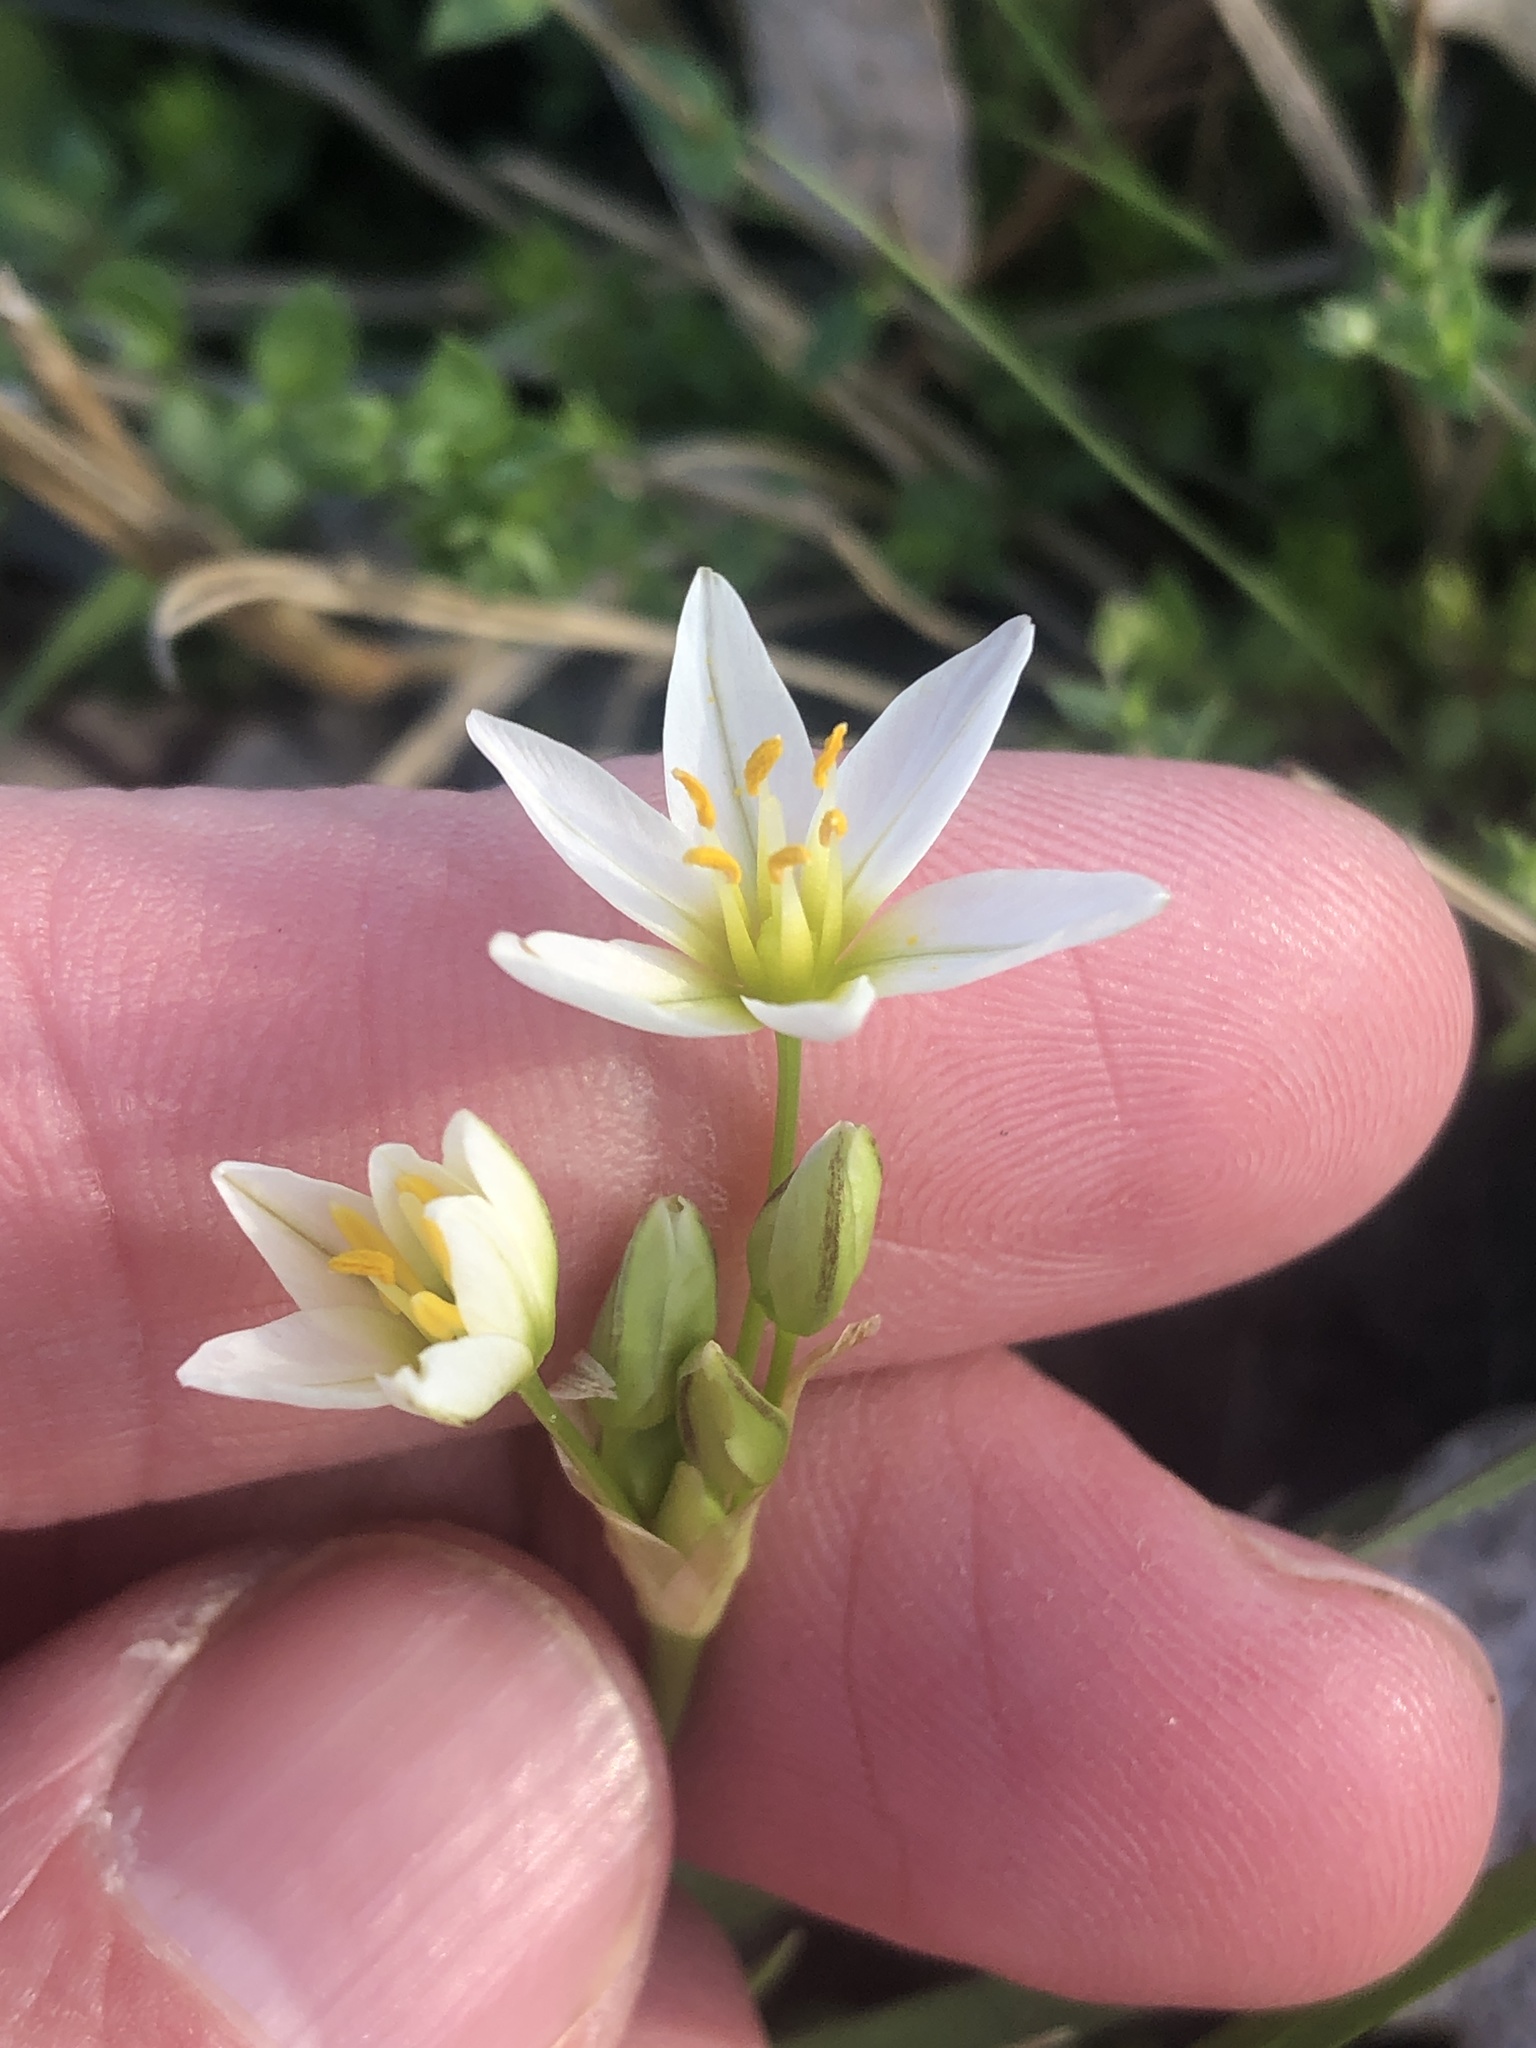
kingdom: Plantae
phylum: Tracheophyta
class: Liliopsida
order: Asparagales
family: Amaryllidaceae
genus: Nothoscordum
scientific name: Nothoscordum bivalve
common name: Crow-poison
